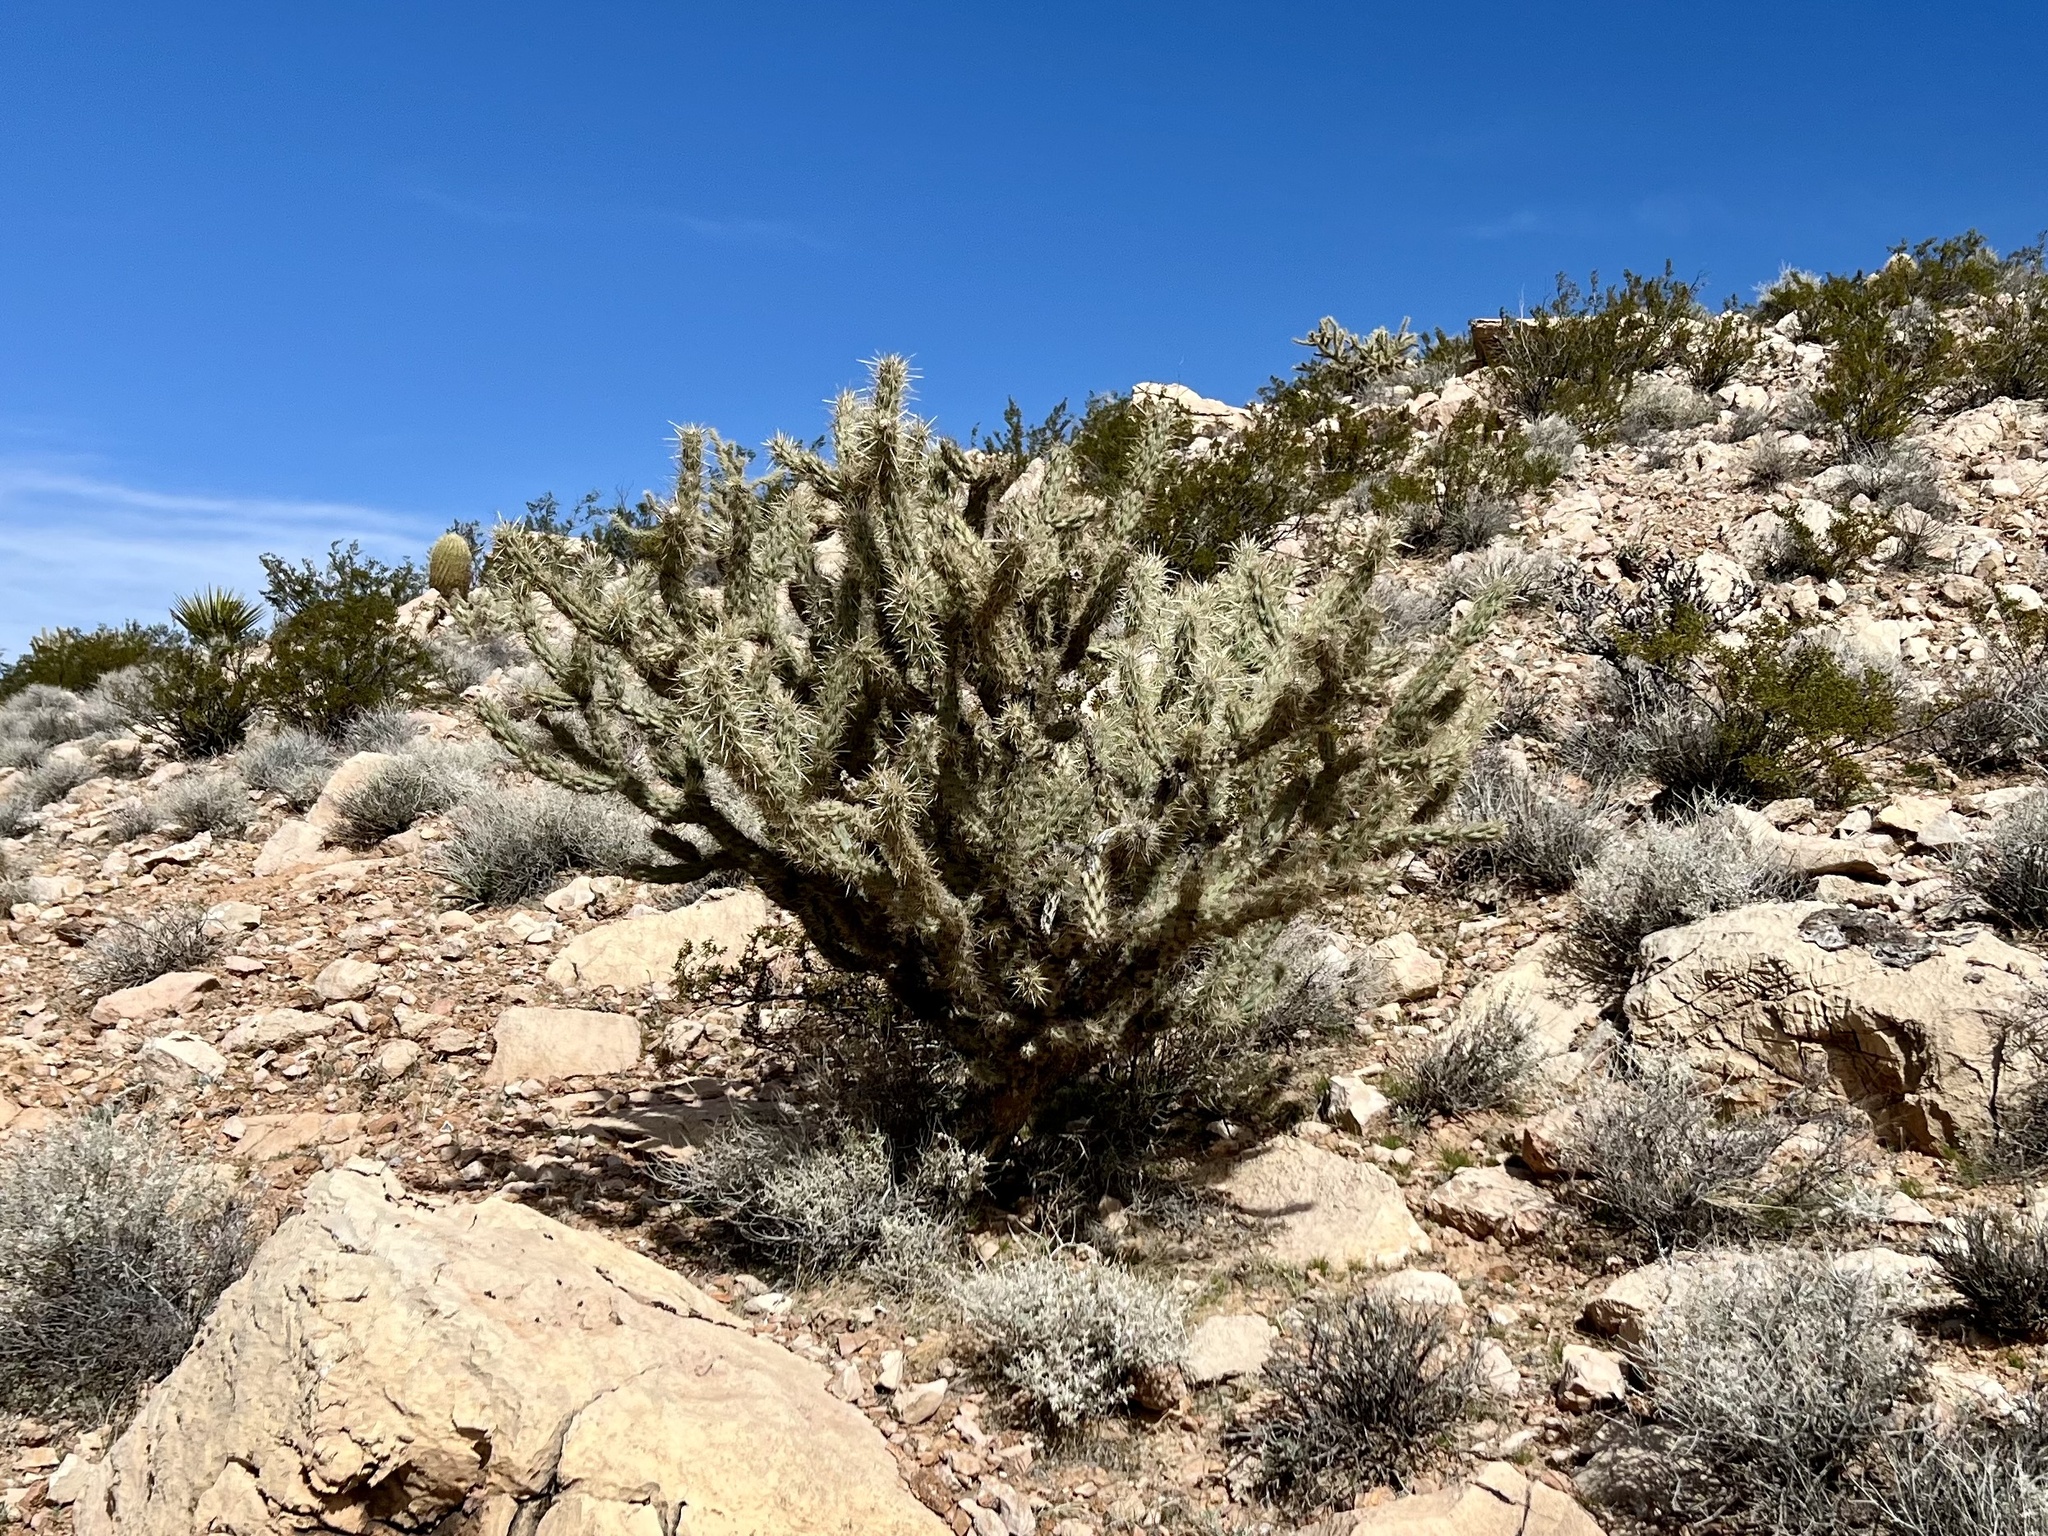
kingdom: Plantae
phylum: Tracheophyta
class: Magnoliopsida
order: Caryophyllales
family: Cactaceae
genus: Cylindropuntia
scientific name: Cylindropuntia acanthocarpa
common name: Buckhorn cholla
